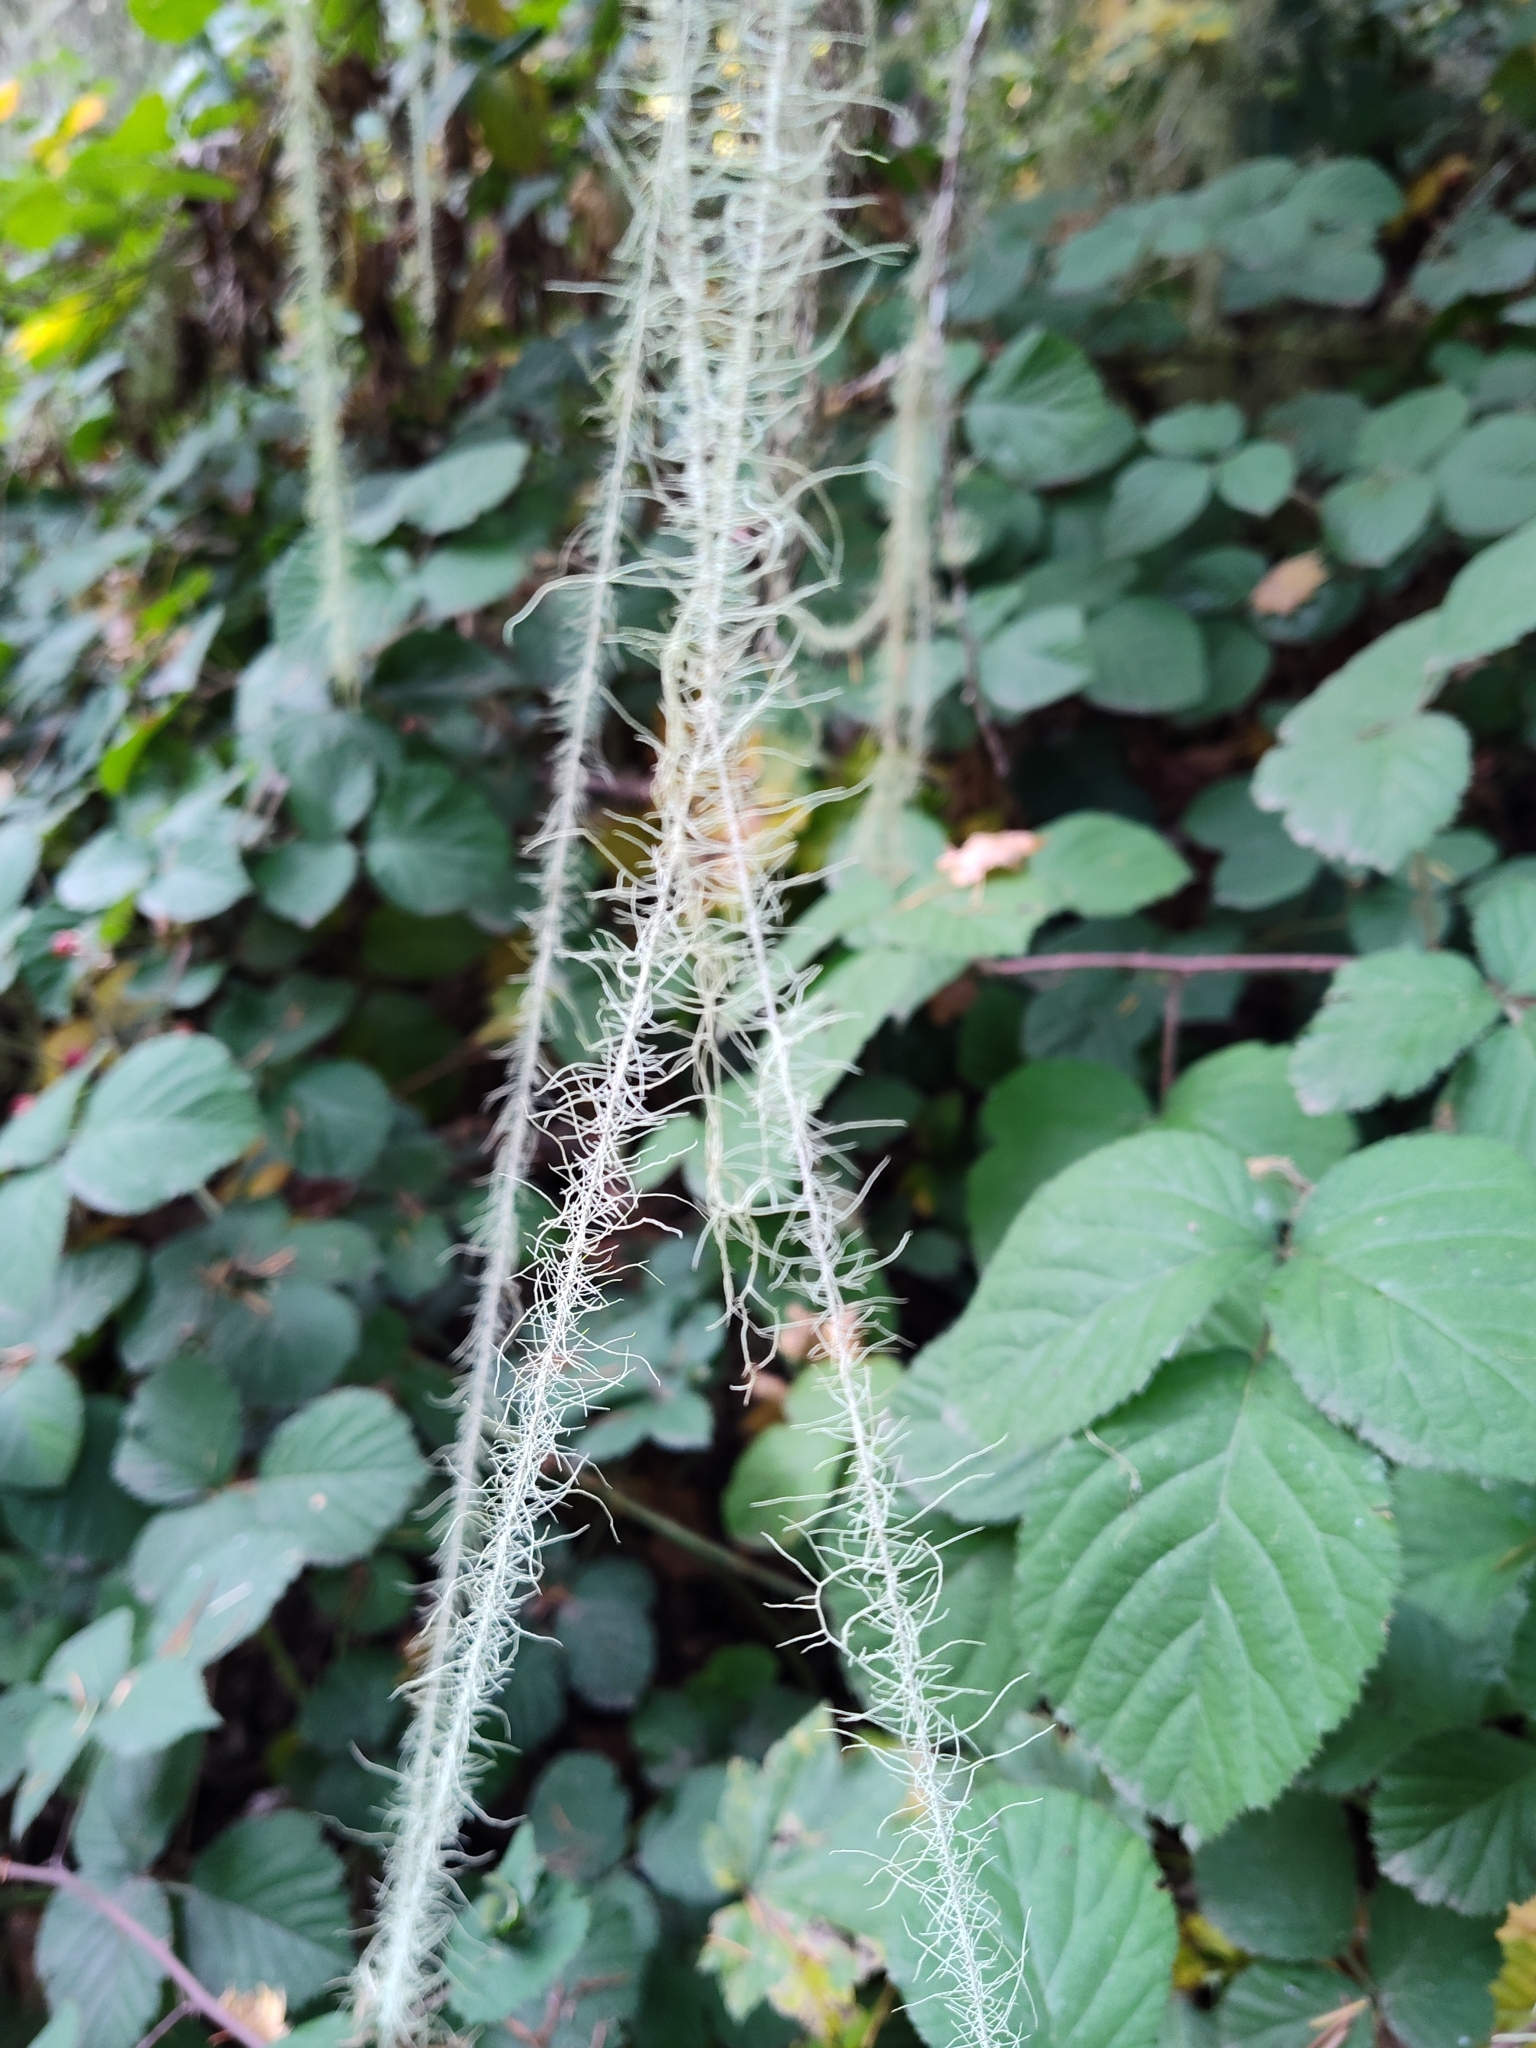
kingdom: Fungi
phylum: Ascomycota
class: Lecanoromycetes
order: Lecanorales
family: Parmeliaceae
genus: Dolichousnea
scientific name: Dolichousnea longissima
